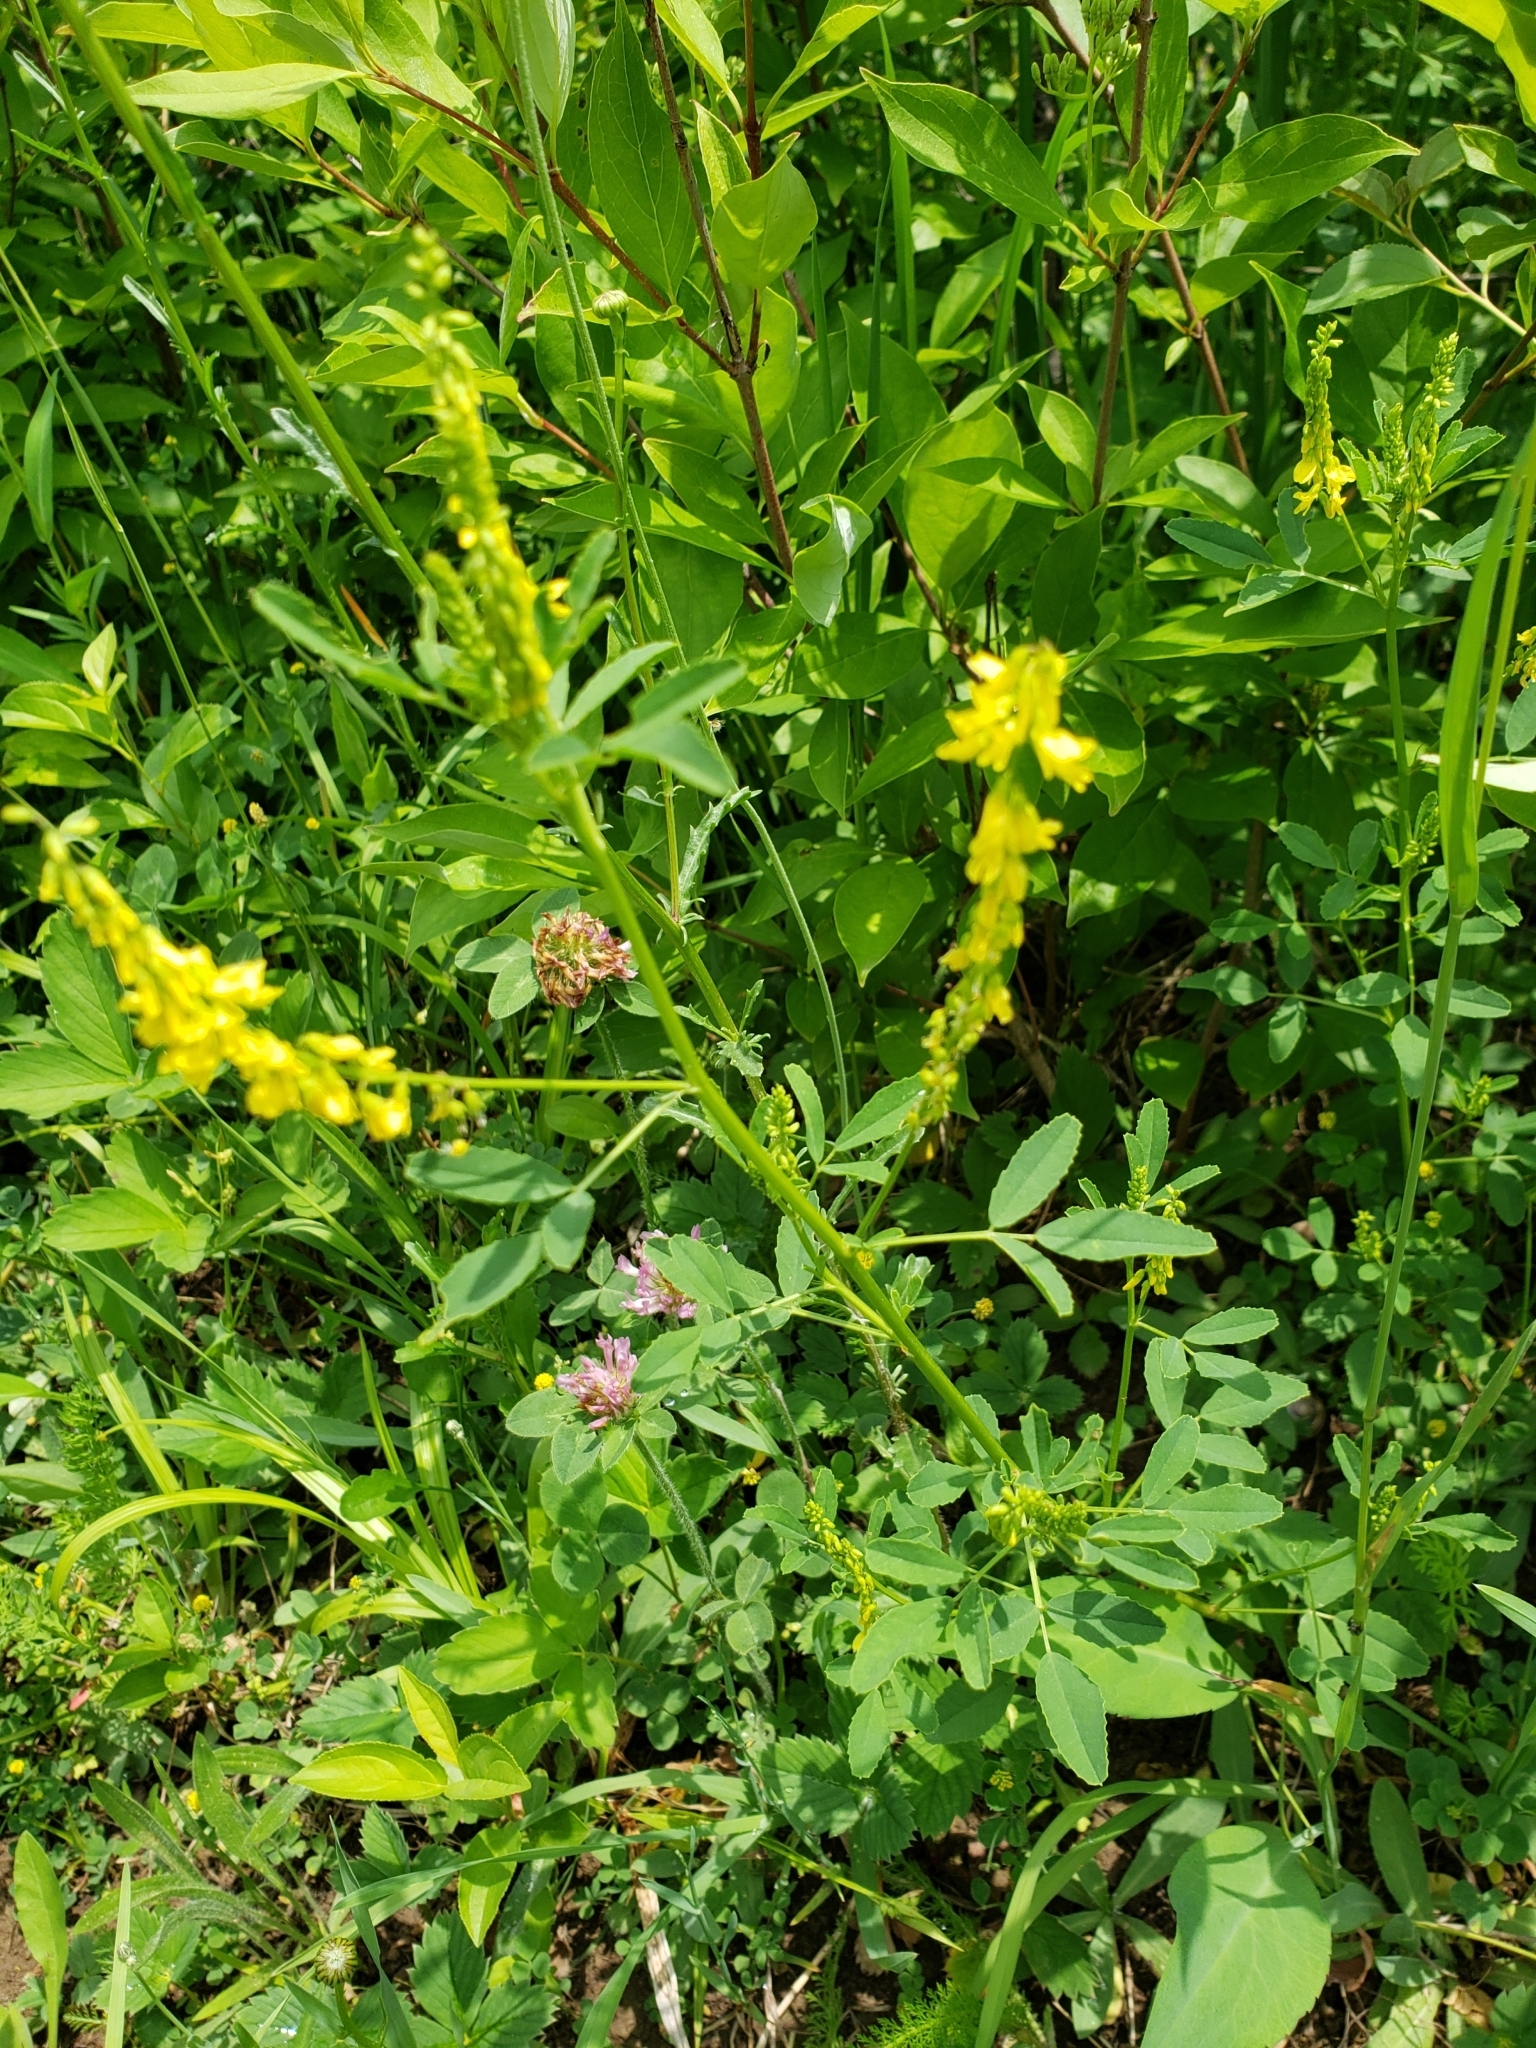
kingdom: Plantae
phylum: Tracheophyta
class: Magnoliopsida
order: Fabales
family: Fabaceae
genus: Melilotus
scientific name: Melilotus officinalis
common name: Sweetclover
